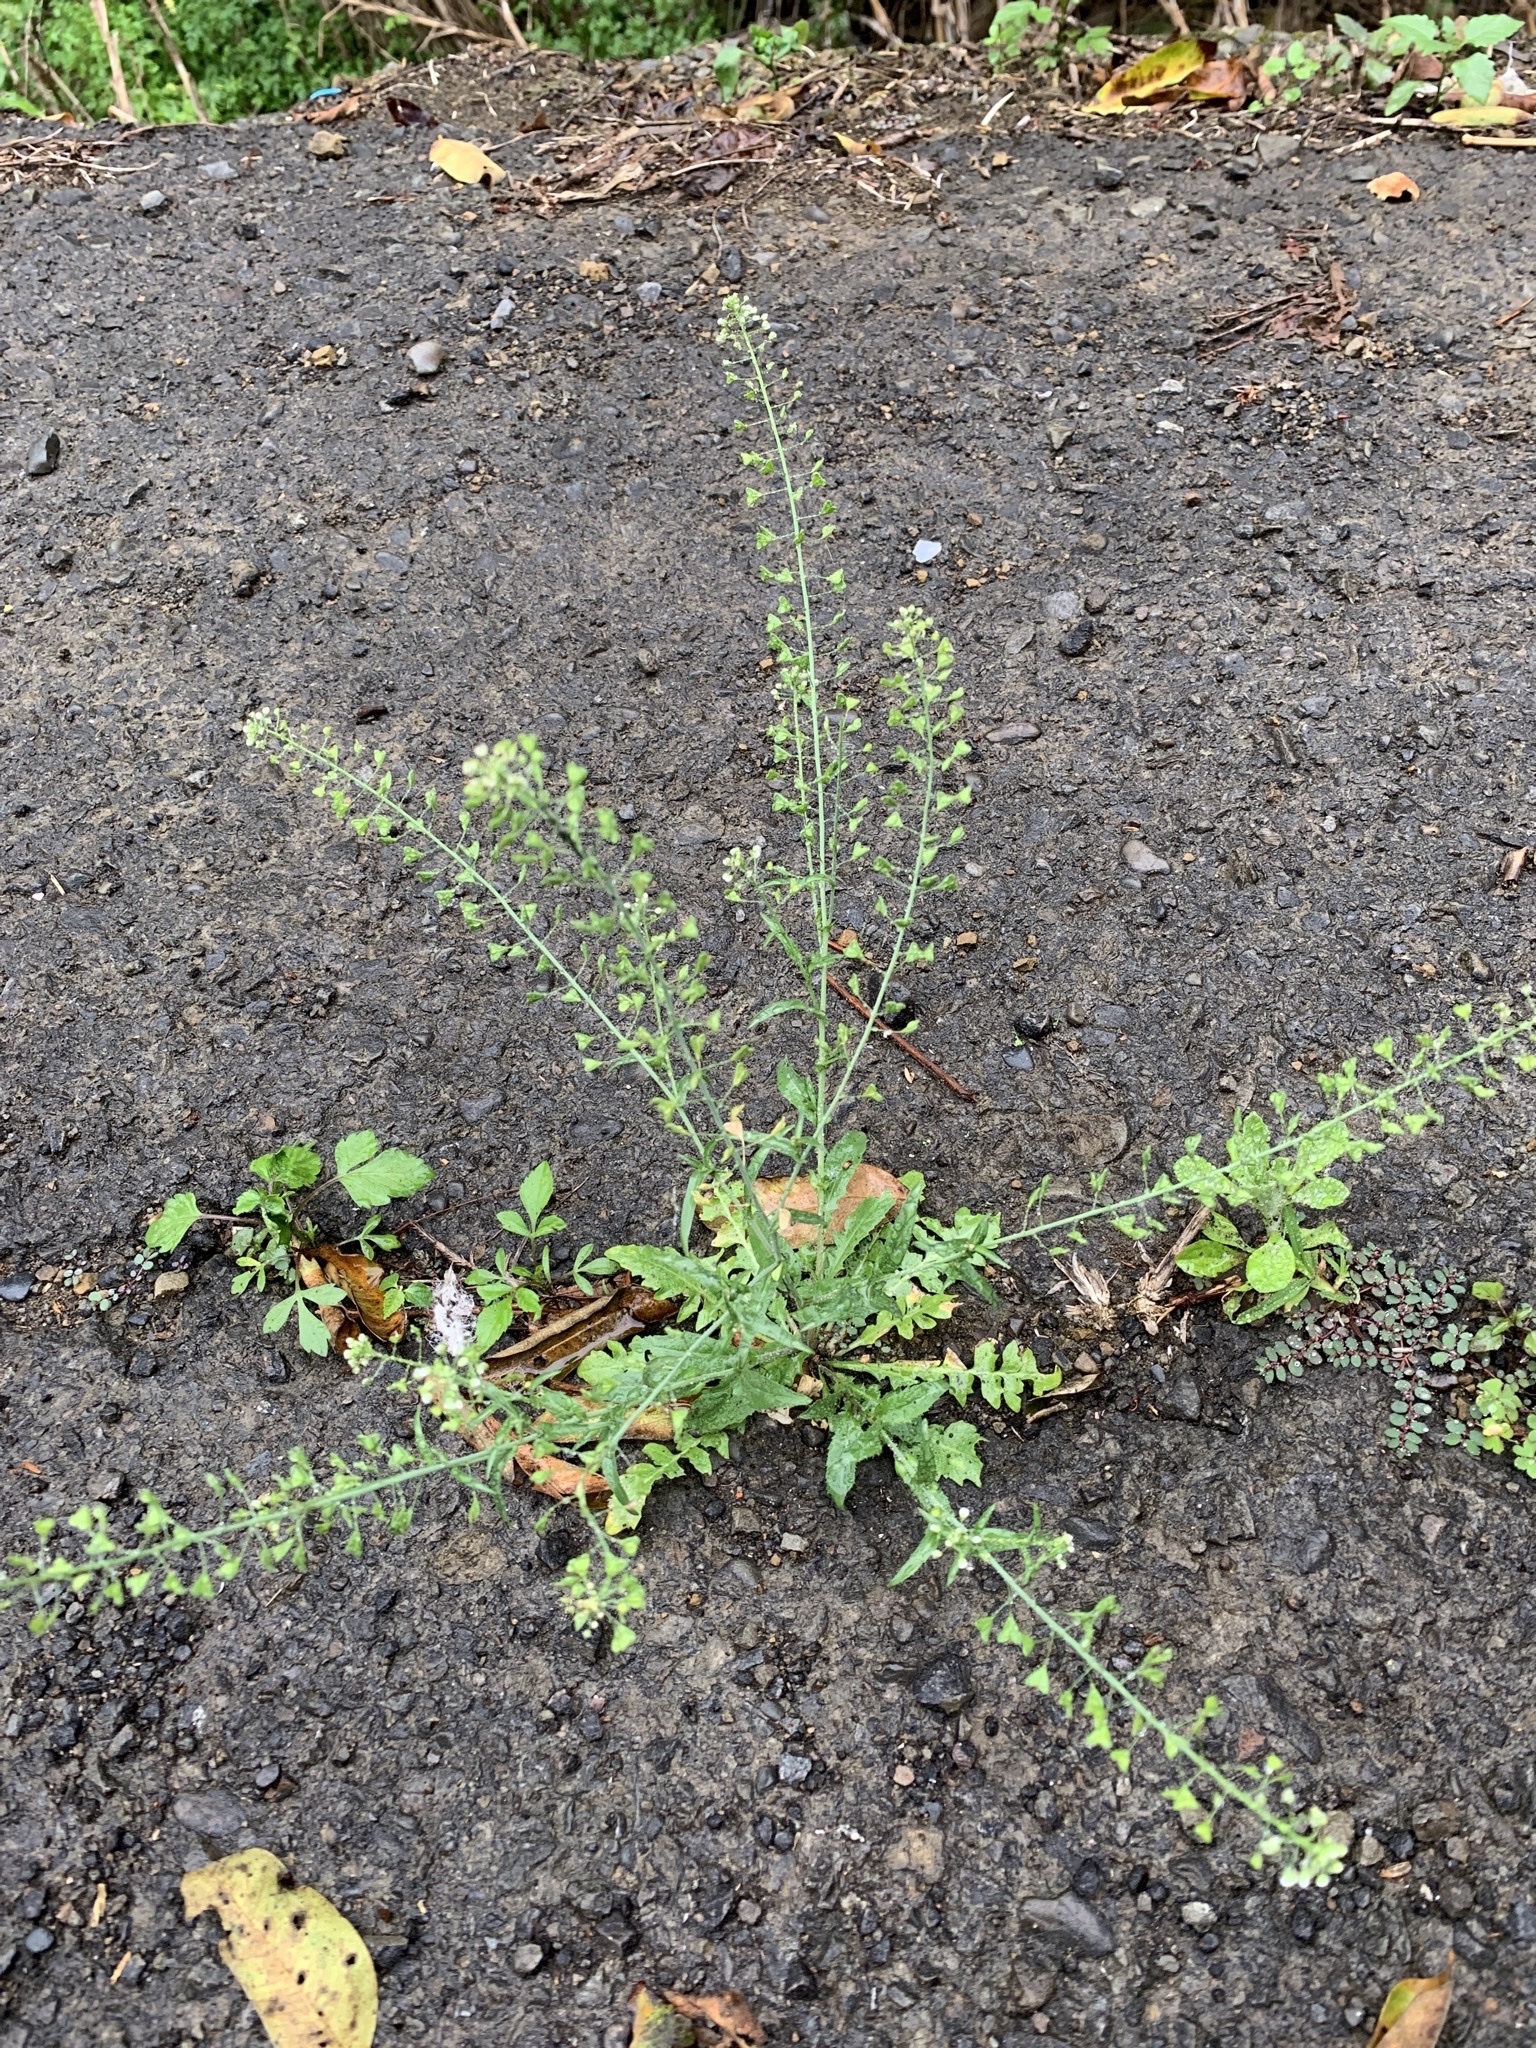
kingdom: Plantae
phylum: Tracheophyta
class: Magnoliopsida
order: Brassicales
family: Brassicaceae
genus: Capsella
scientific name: Capsella bursa-pastoris
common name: Shepherd's purse
